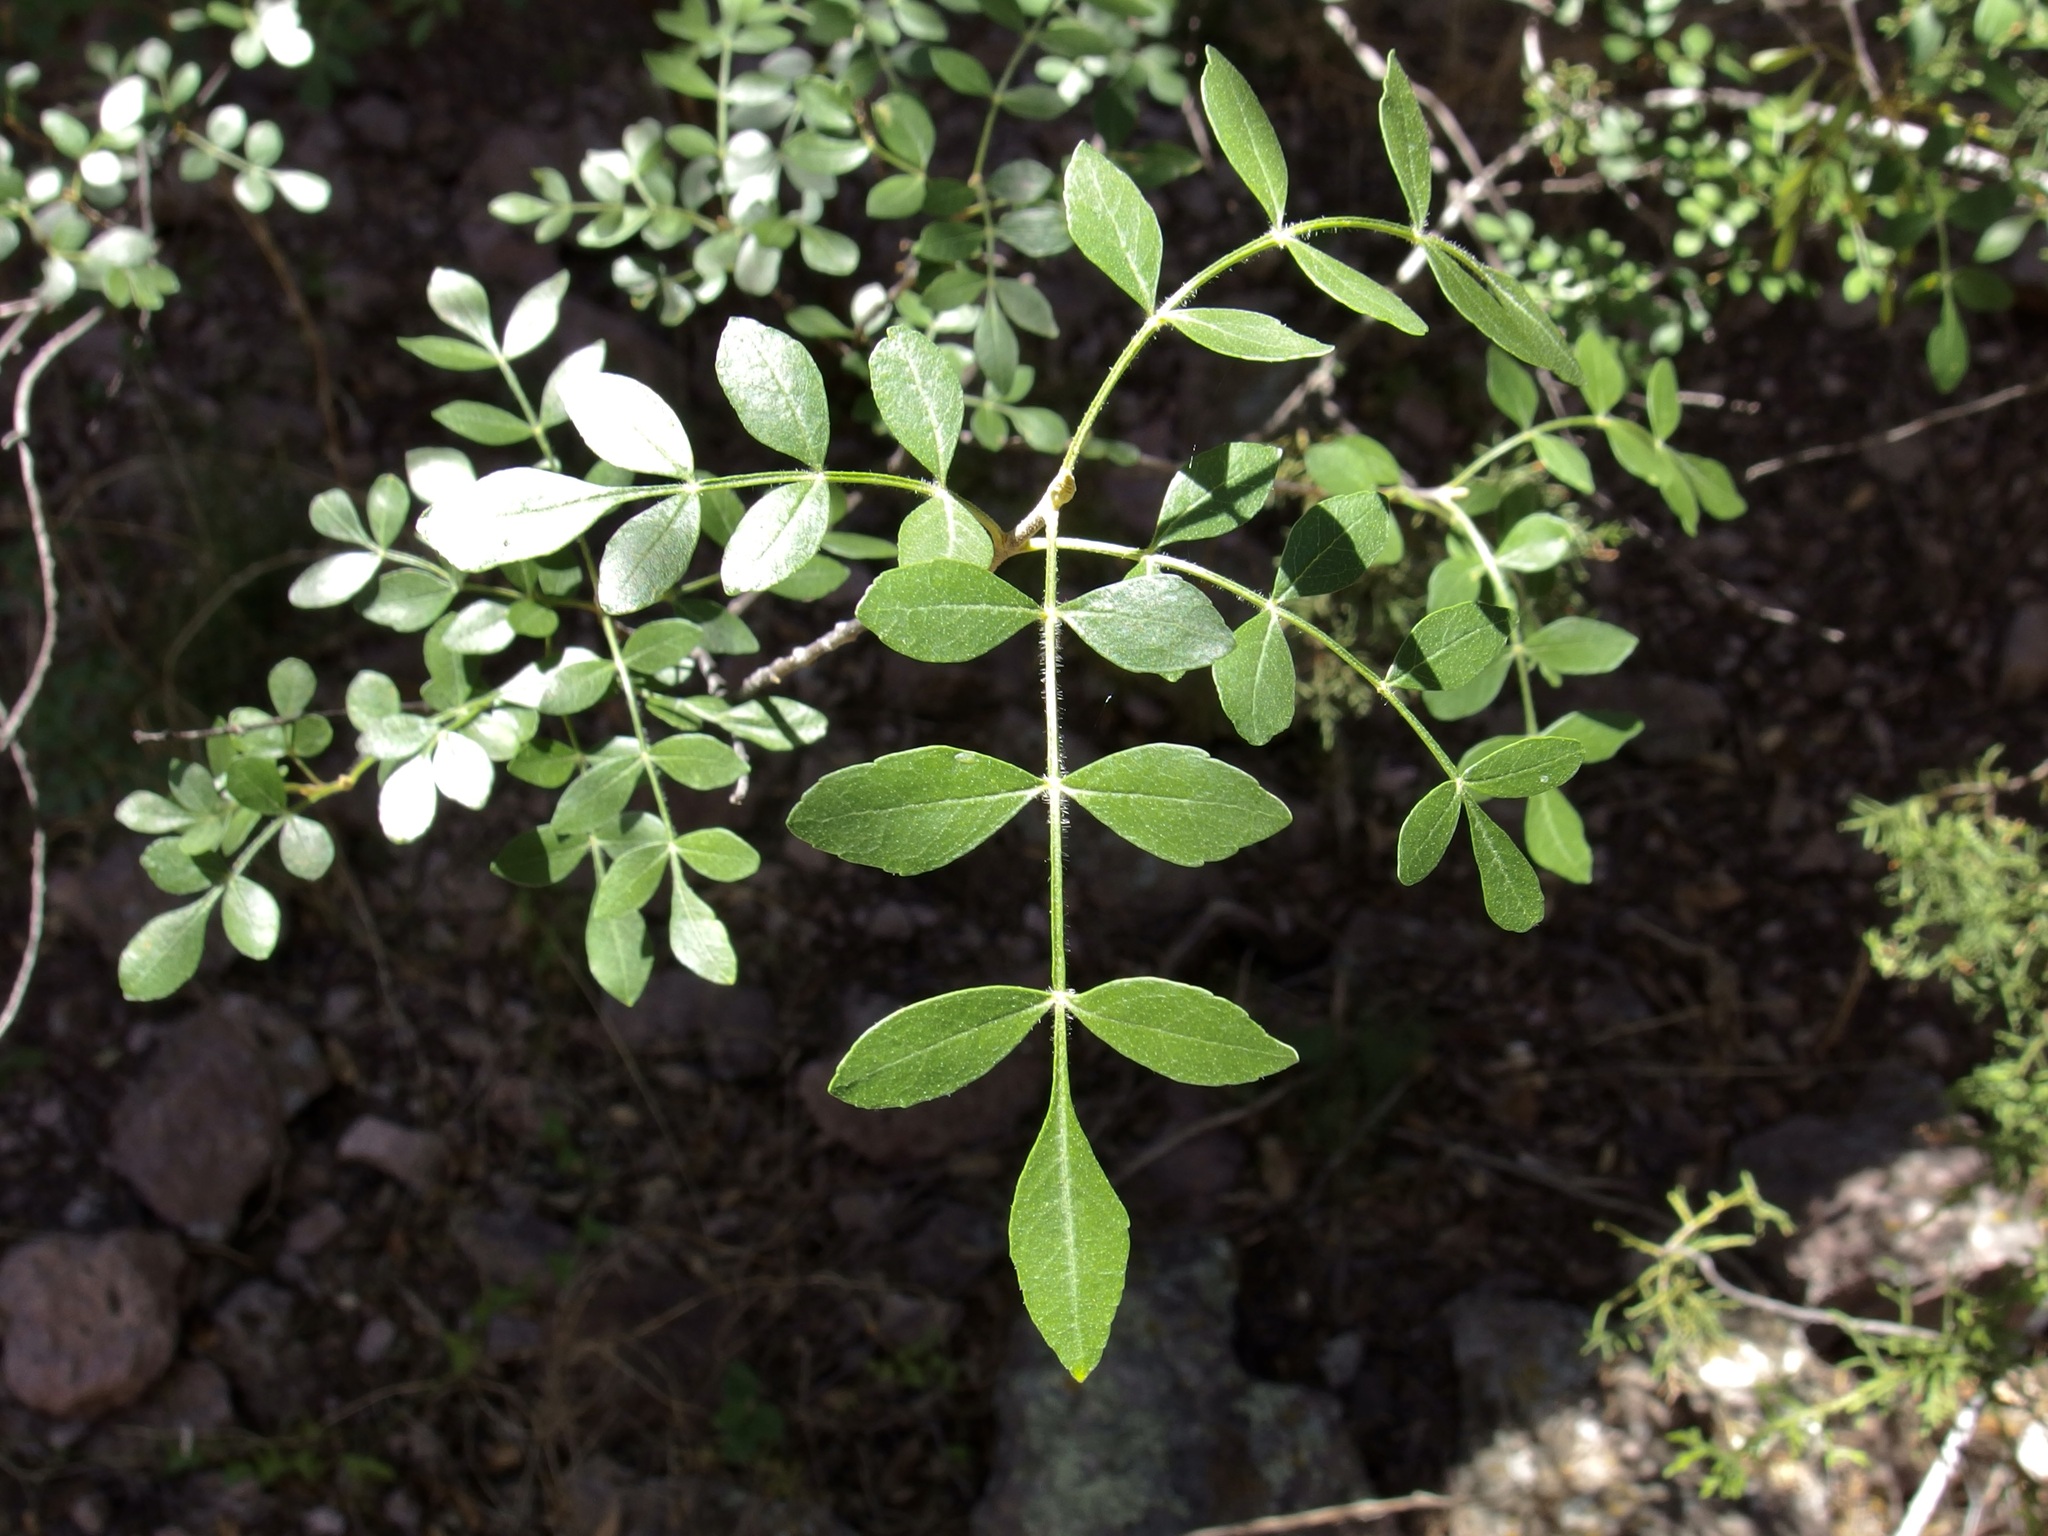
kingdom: Plantae
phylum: Tracheophyta
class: Magnoliopsida
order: Lamiales
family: Oleaceae
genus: Fraxinus
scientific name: Fraxinus gooddingii
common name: Goodding ash
